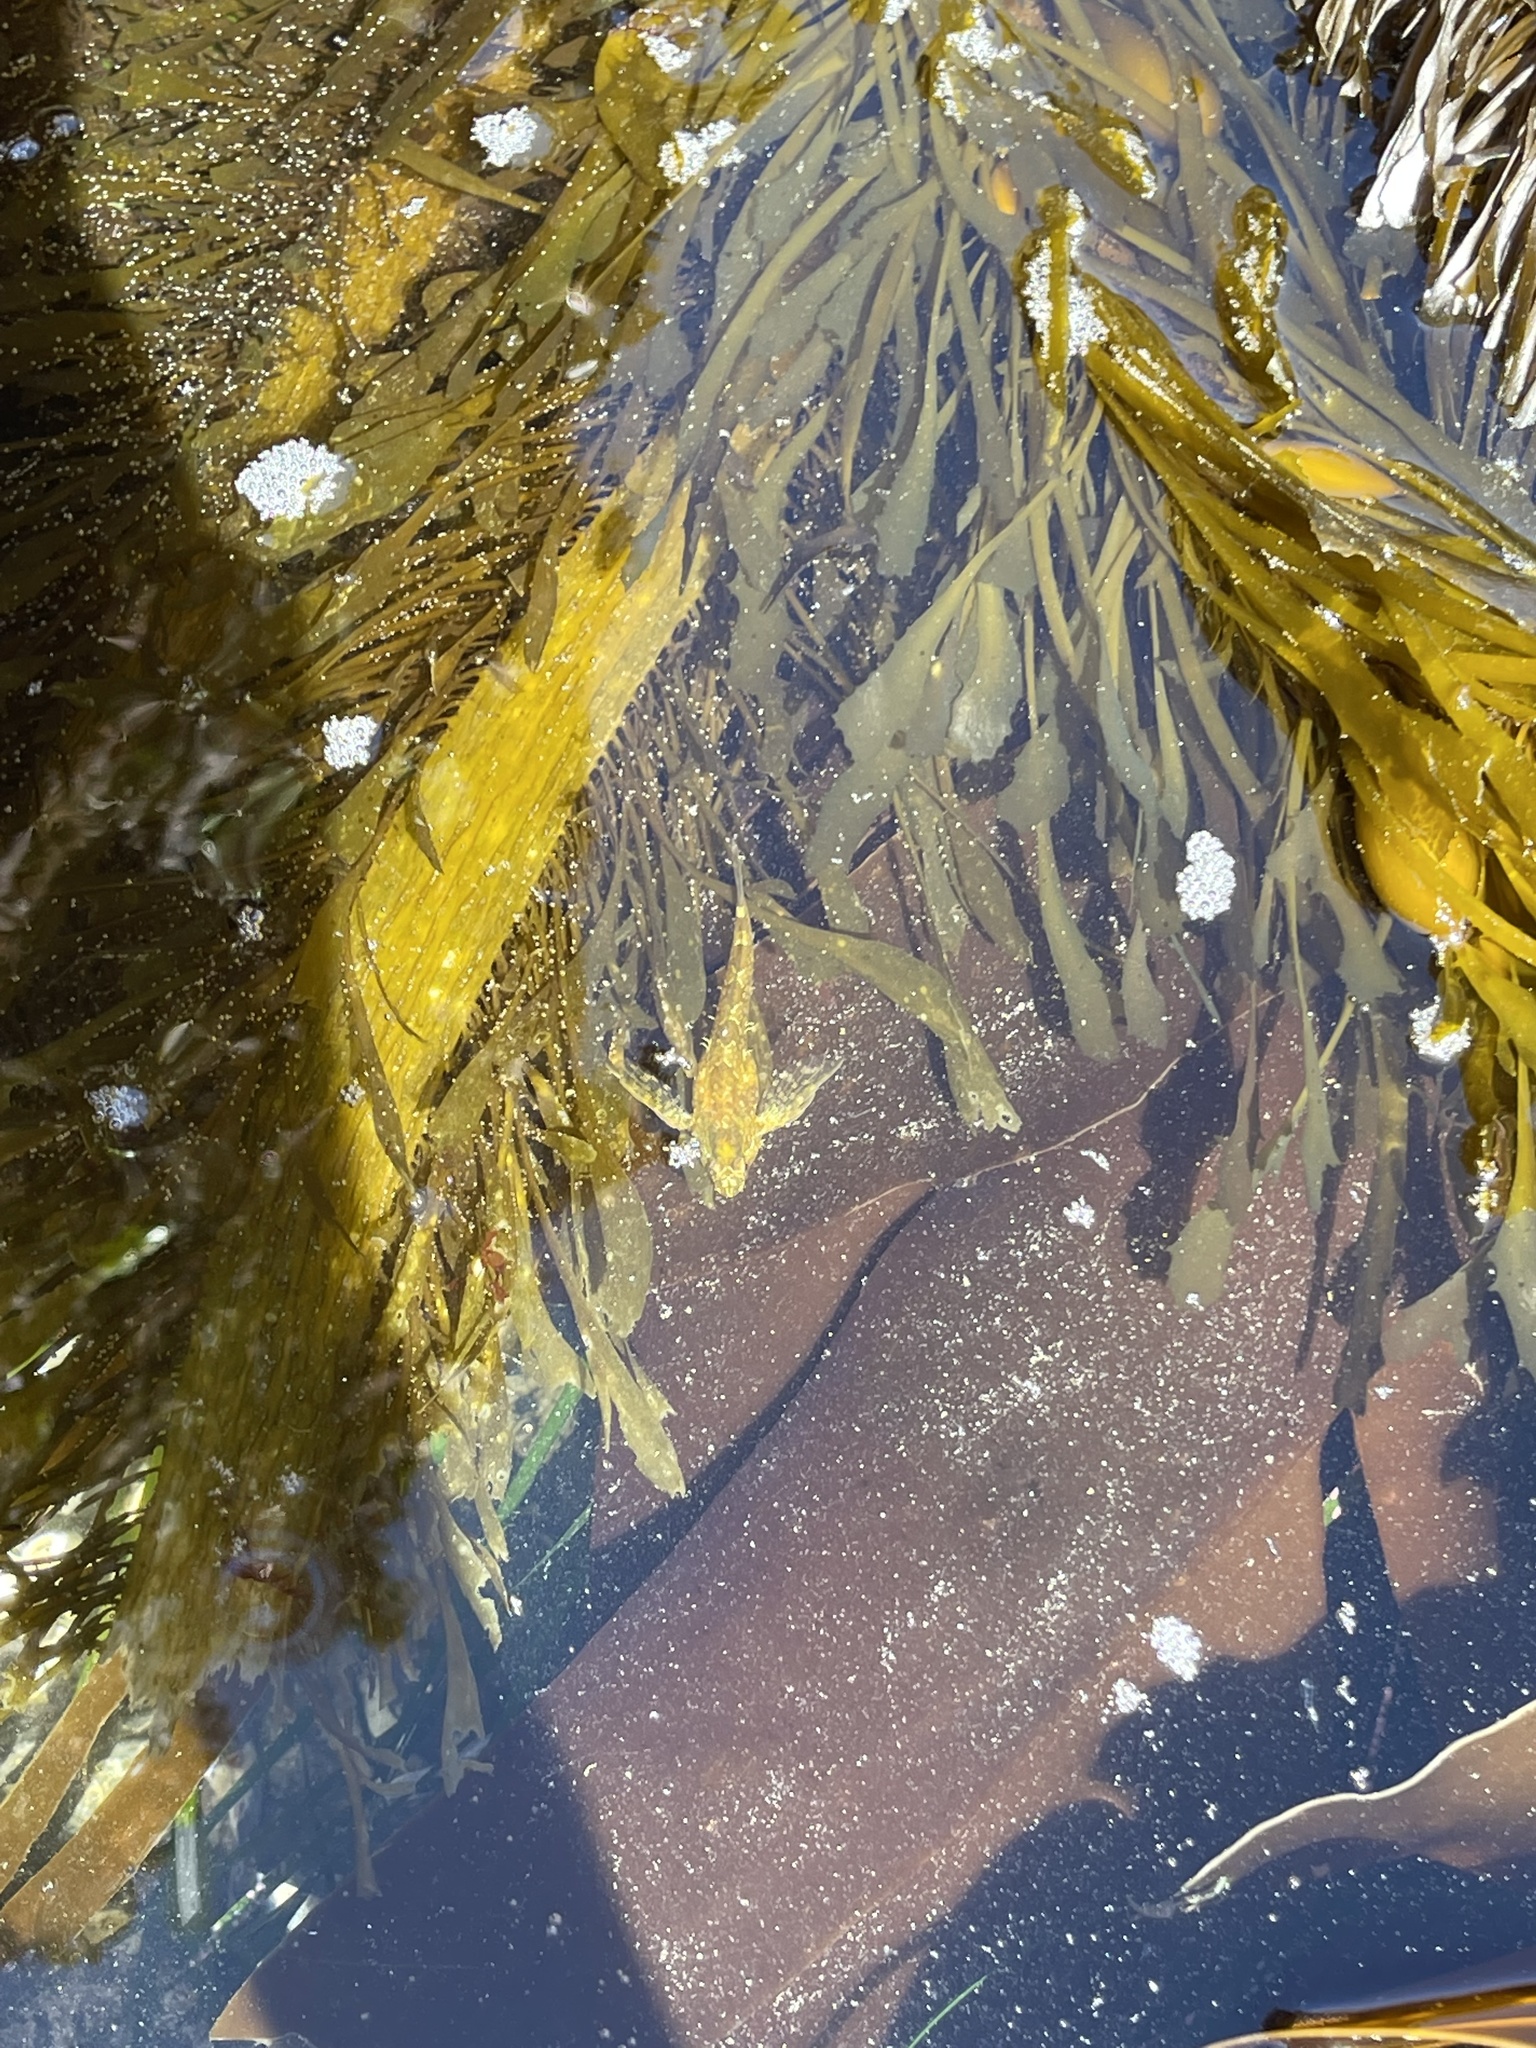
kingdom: Animalia
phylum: Chordata
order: Scorpaeniformes
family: Cottidae
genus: Oligocottus
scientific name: Oligocottus maculosus
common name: Tidepool sculpin
